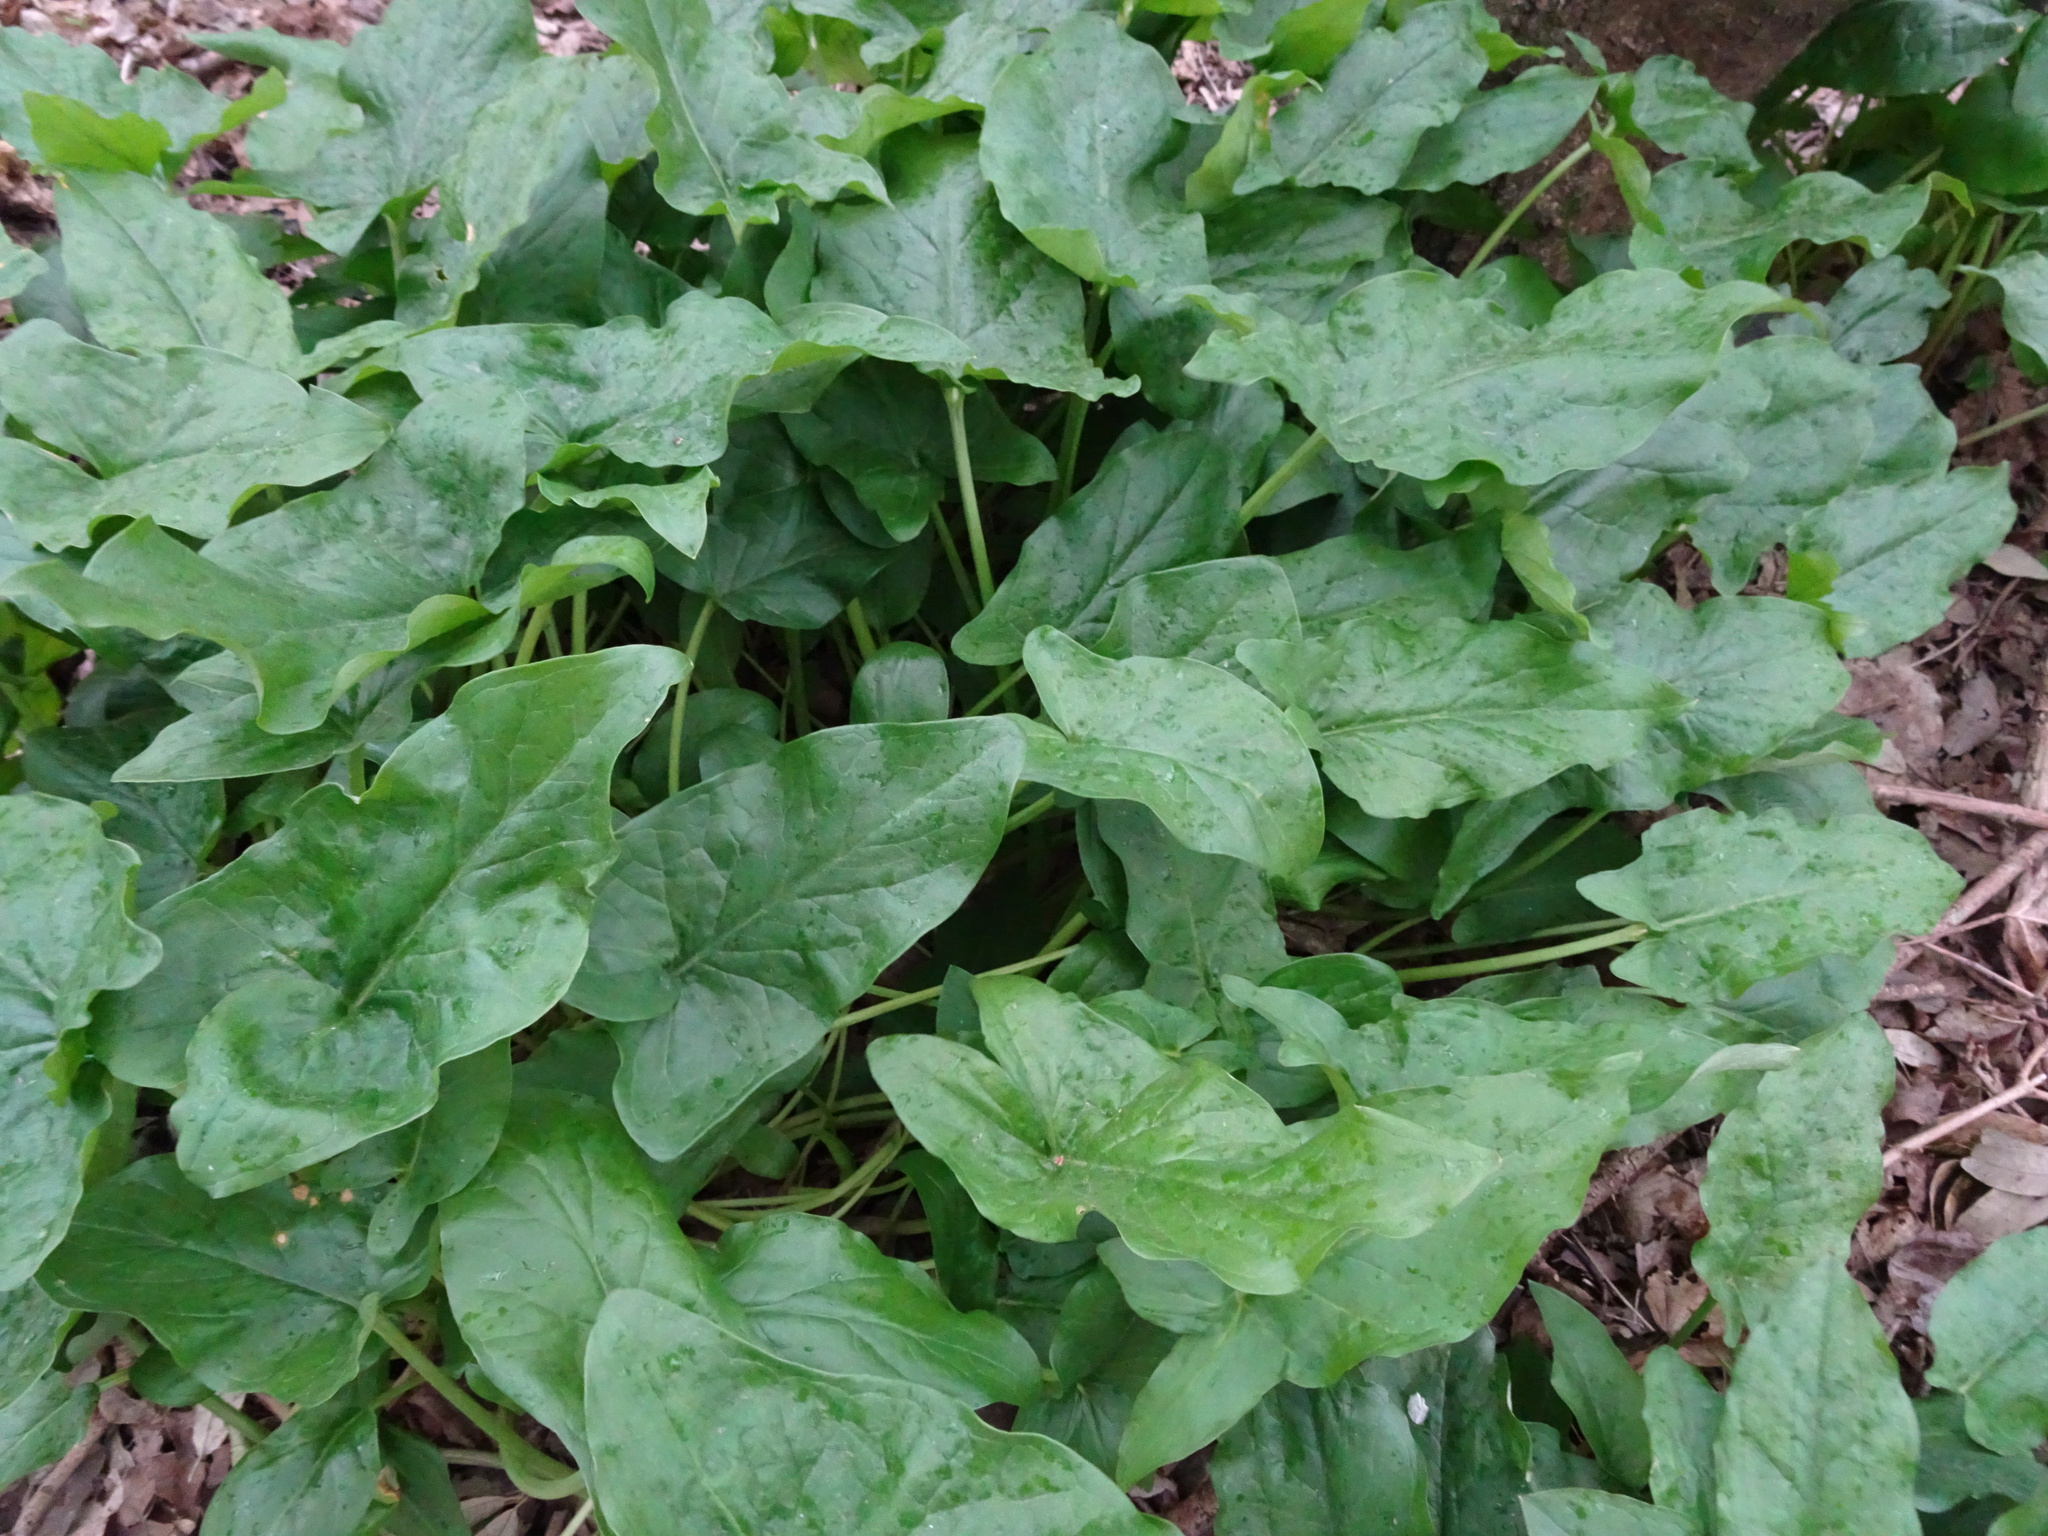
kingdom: Plantae
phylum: Tracheophyta
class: Liliopsida
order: Alismatales
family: Araceae
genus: Arum
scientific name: Arum maculatum
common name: Lords-and-ladies
